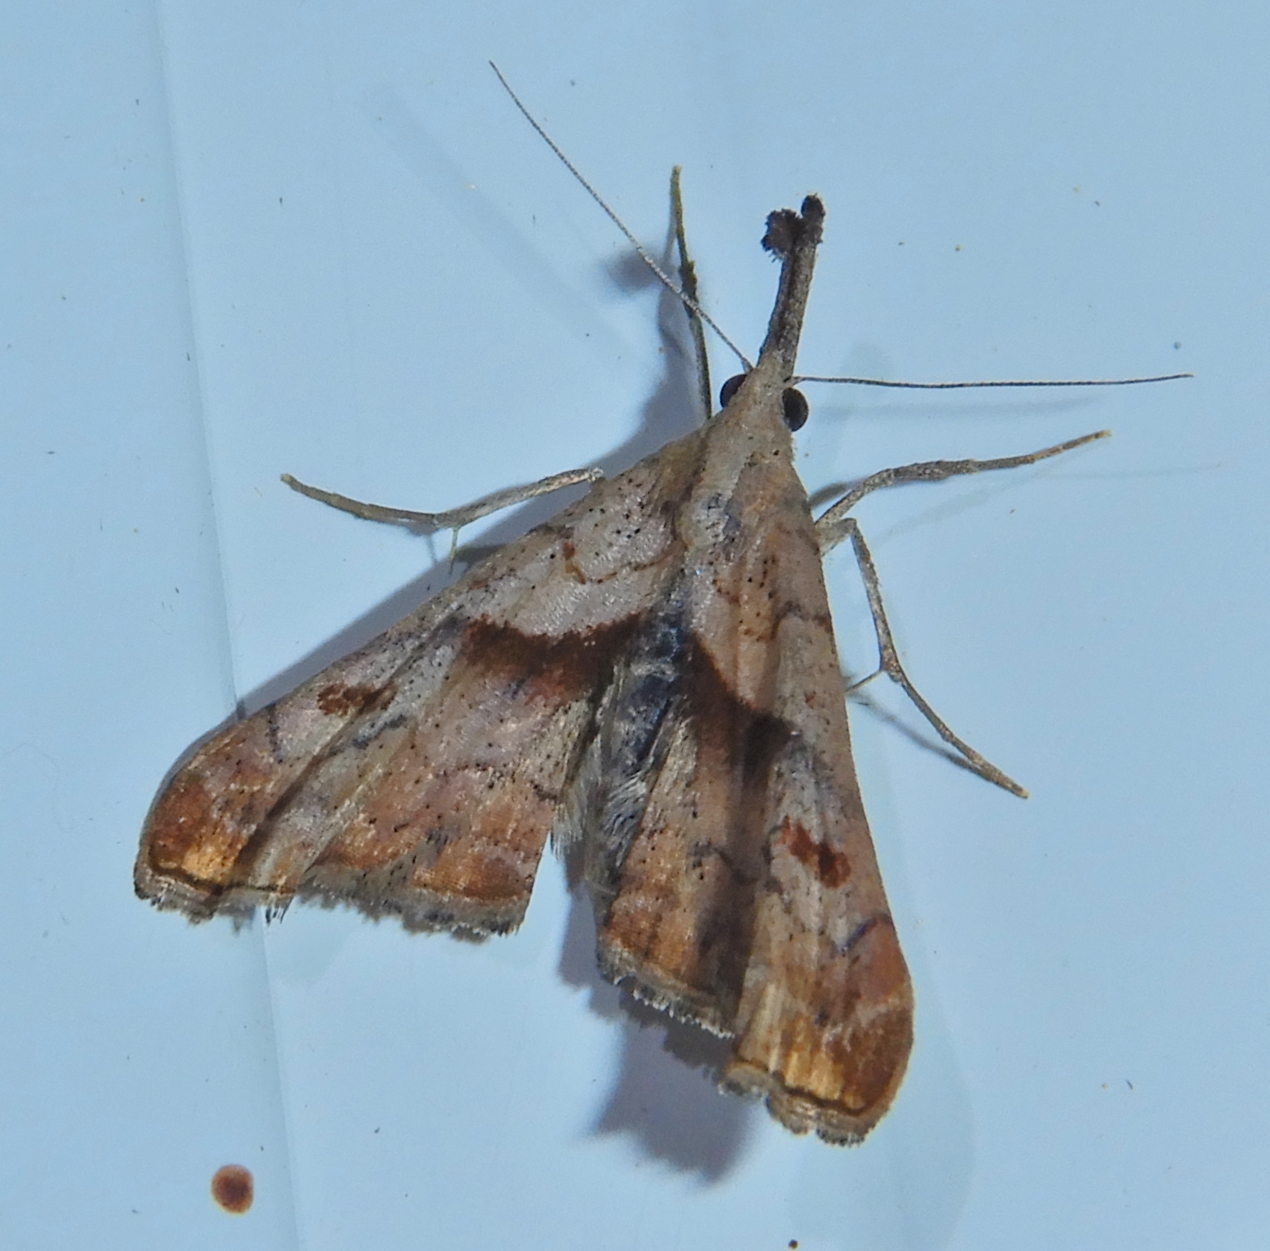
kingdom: Animalia
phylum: Arthropoda
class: Insecta
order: Lepidoptera
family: Erebidae
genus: Palthis
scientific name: Palthis angulalis
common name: Dark-spotted palthis moth
